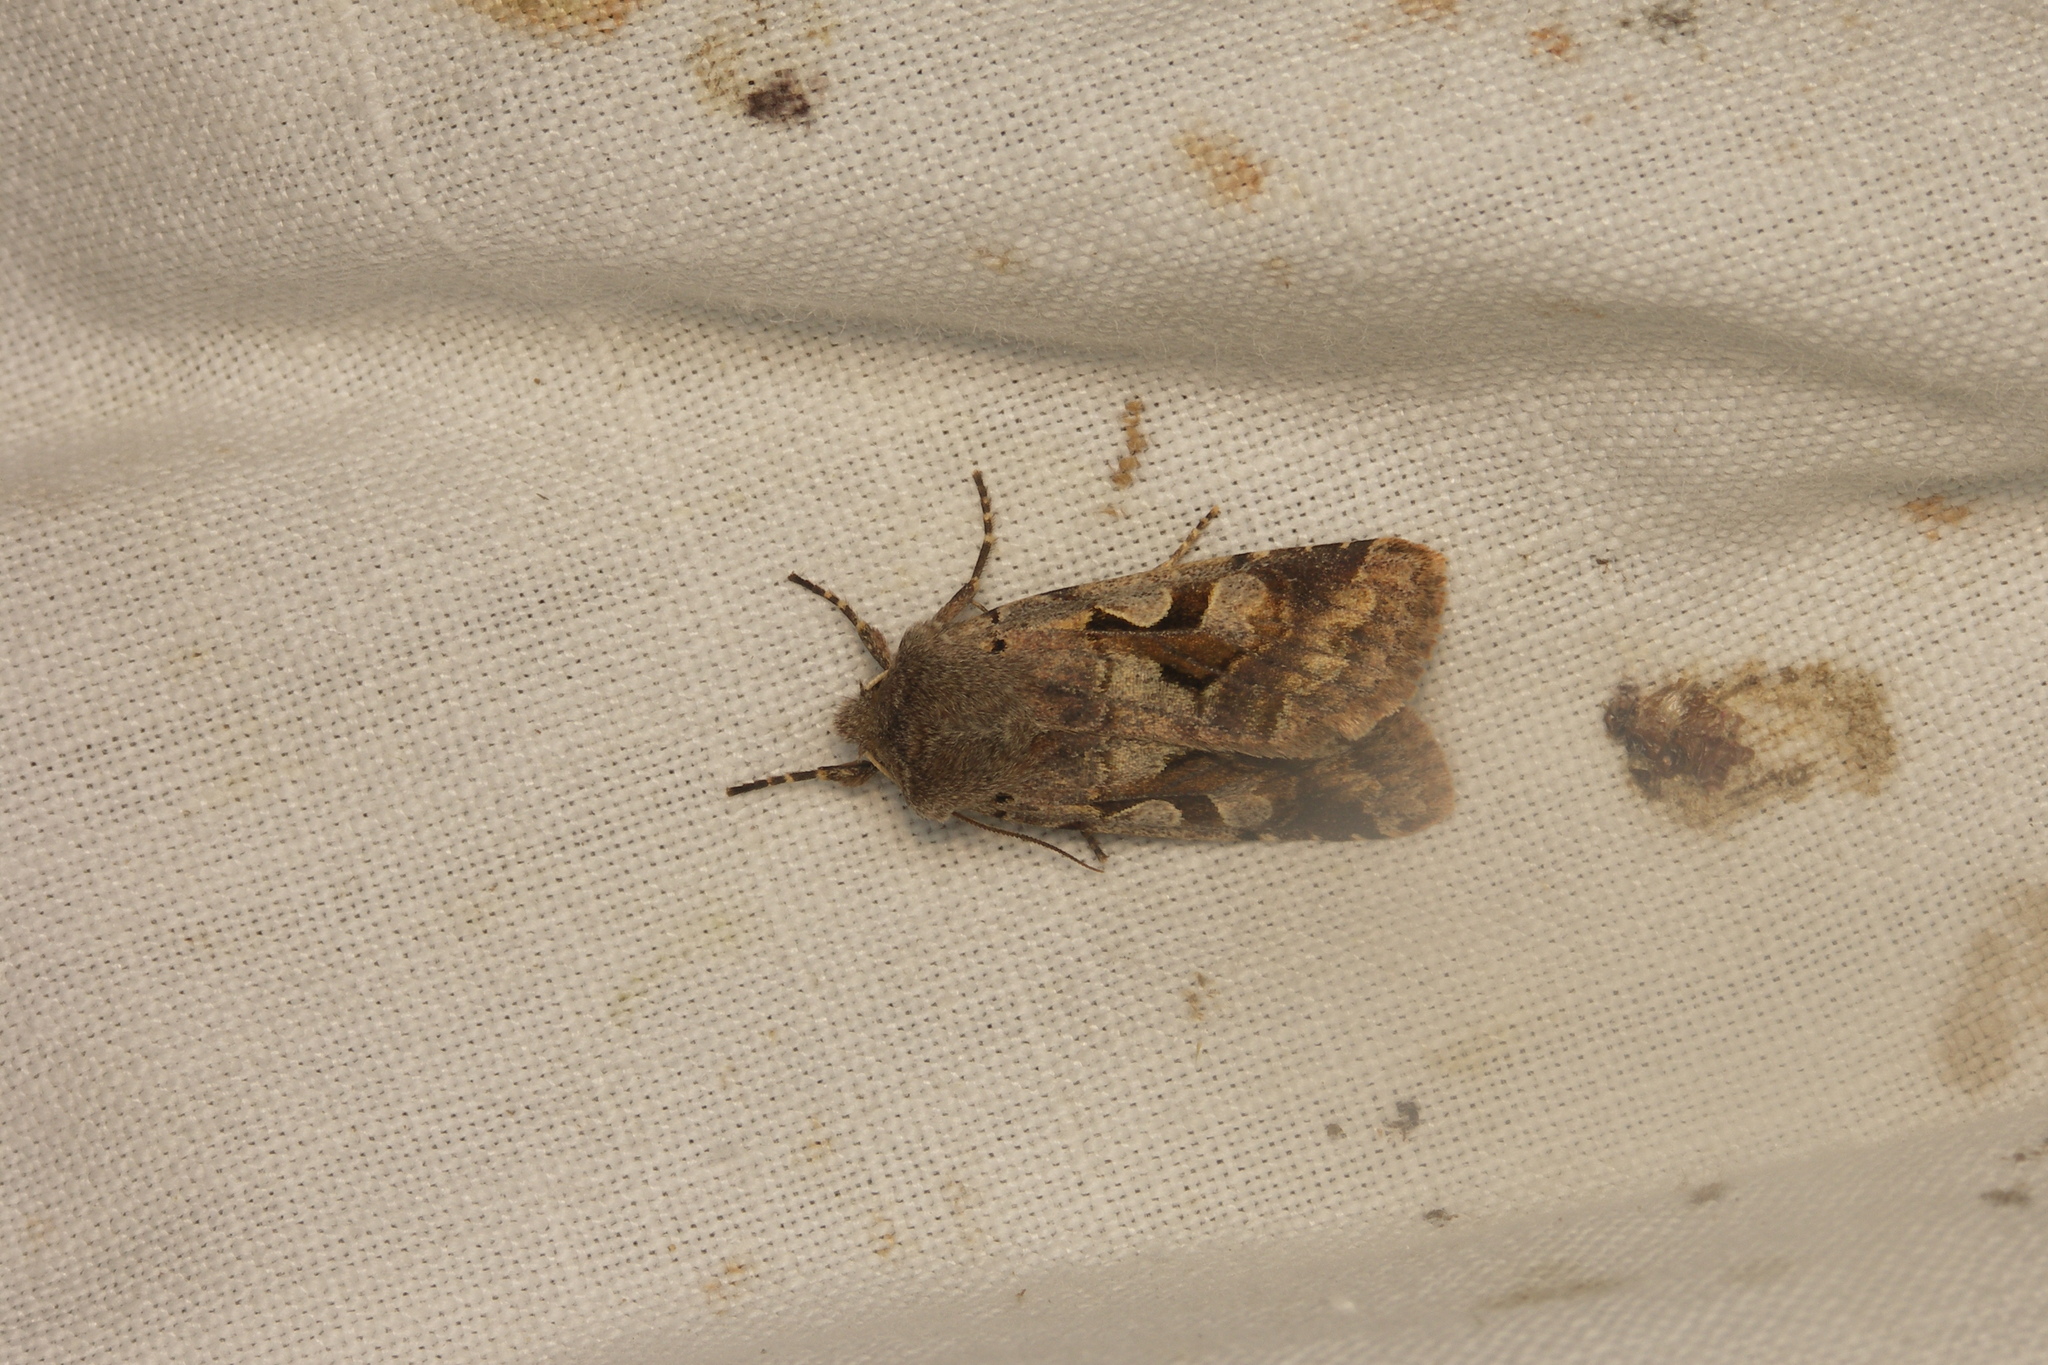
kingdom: Animalia
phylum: Arthropoda
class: Insecta
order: Lepidoptera
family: Noctuidae
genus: Orthosia
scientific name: Orthosia gothica
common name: Hebrew character
